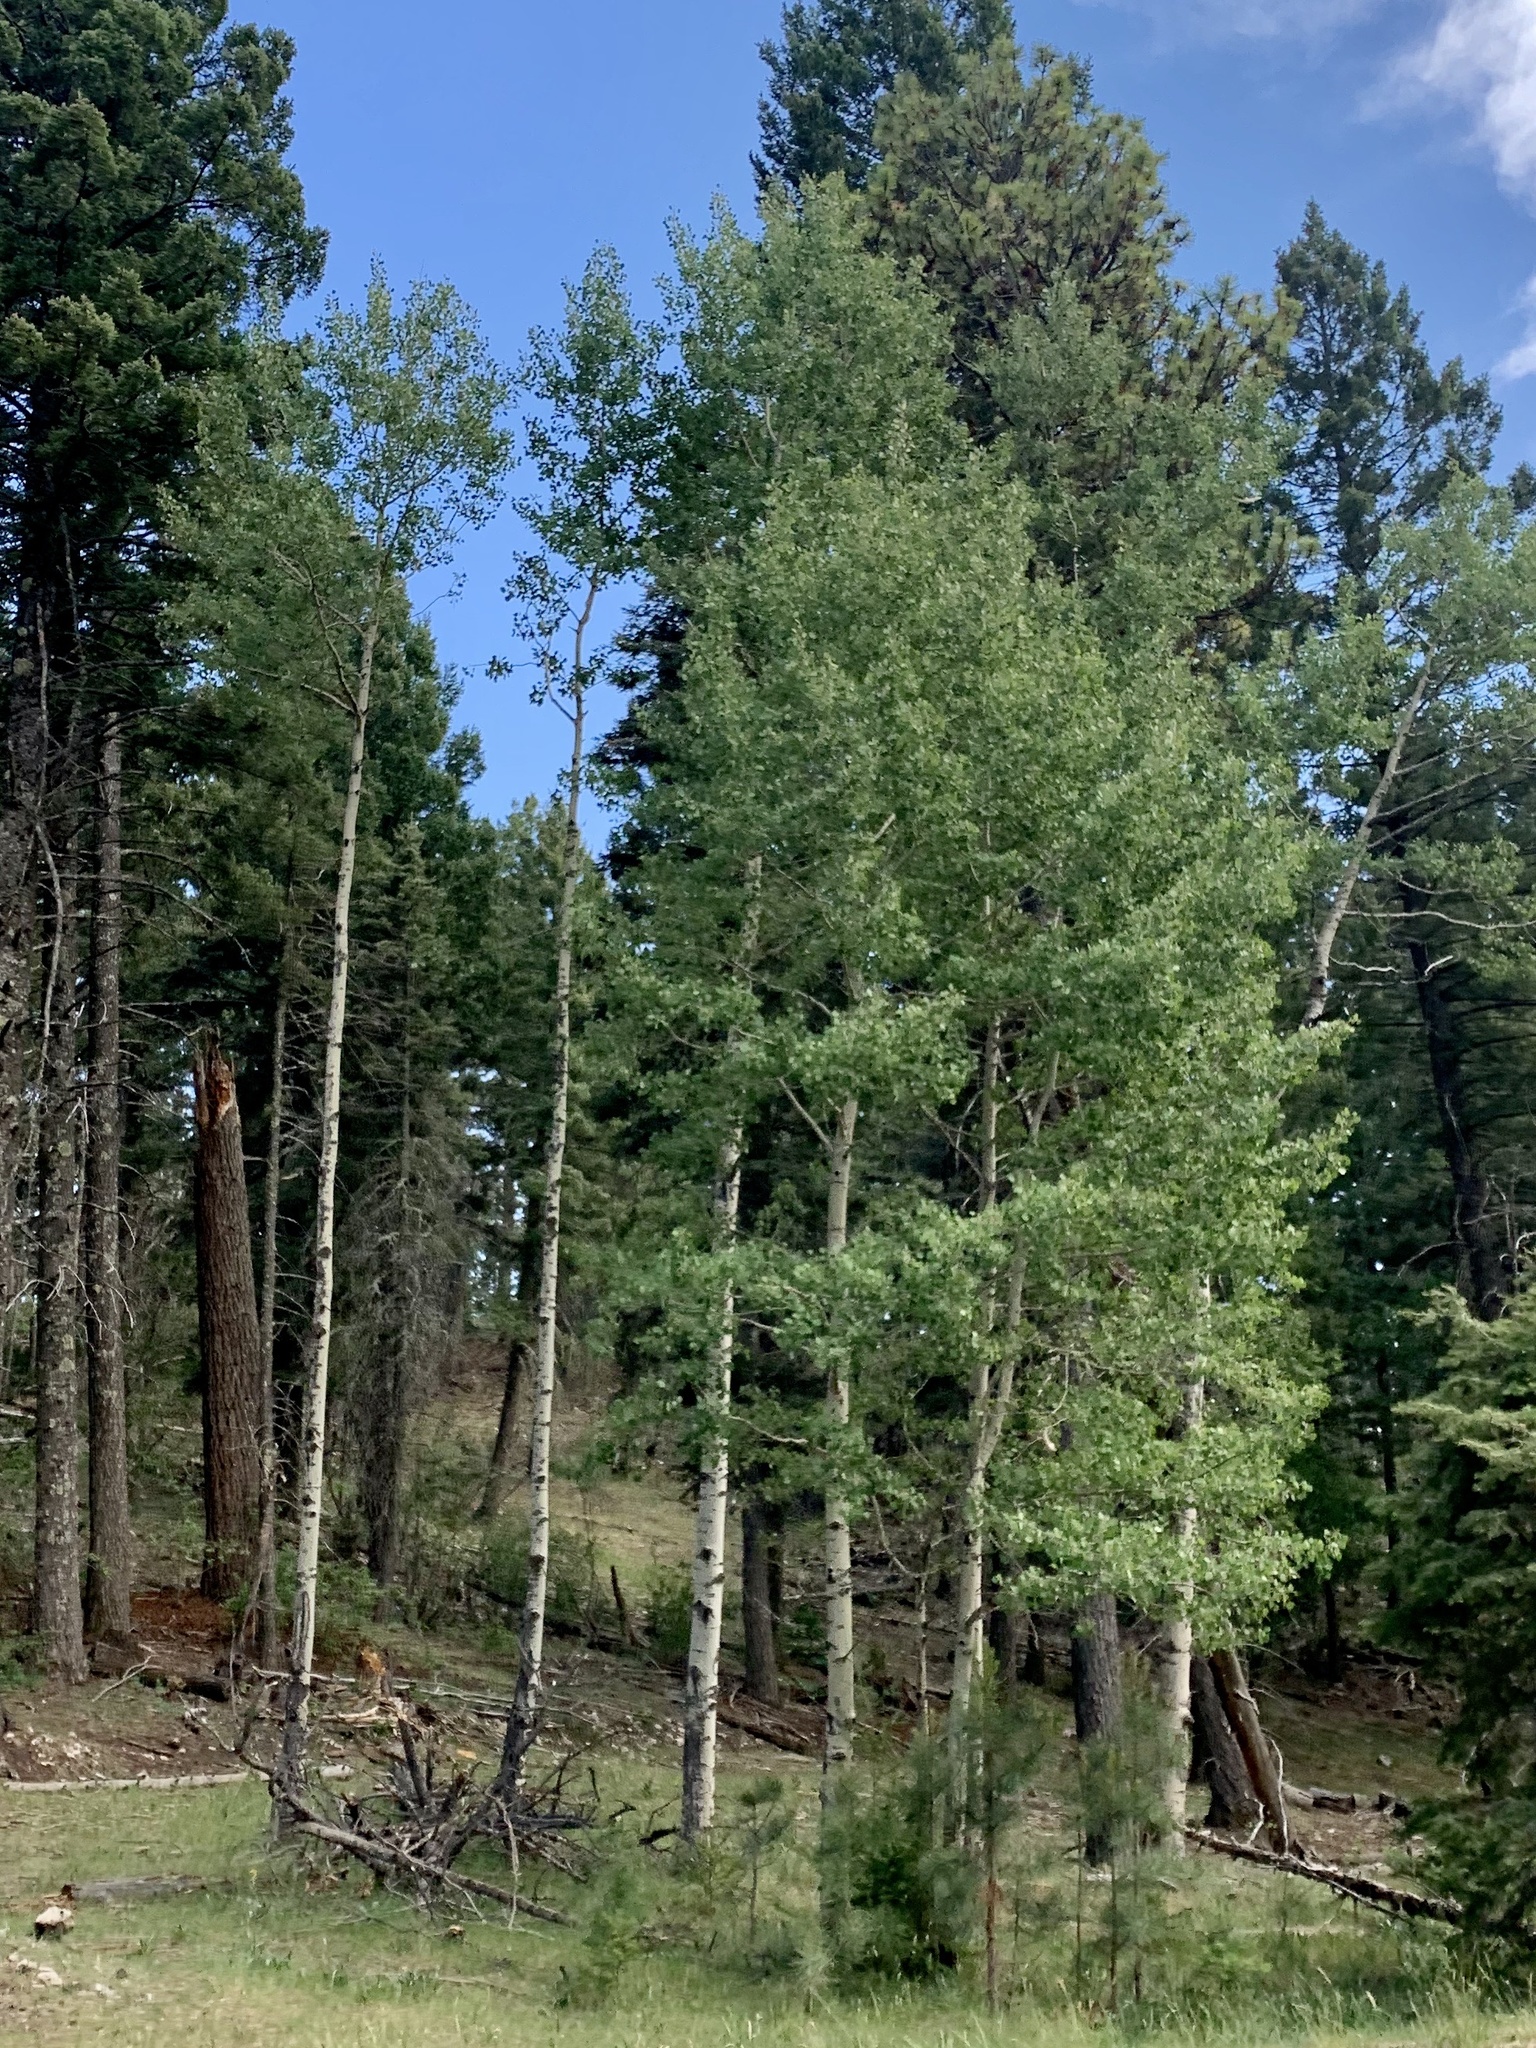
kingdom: Plantae
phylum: Tracheophyta
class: Magnoliopsida
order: Malpighiales
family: Salicaceae
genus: Populus
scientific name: Populus tremuloides
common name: Quaking aspen
